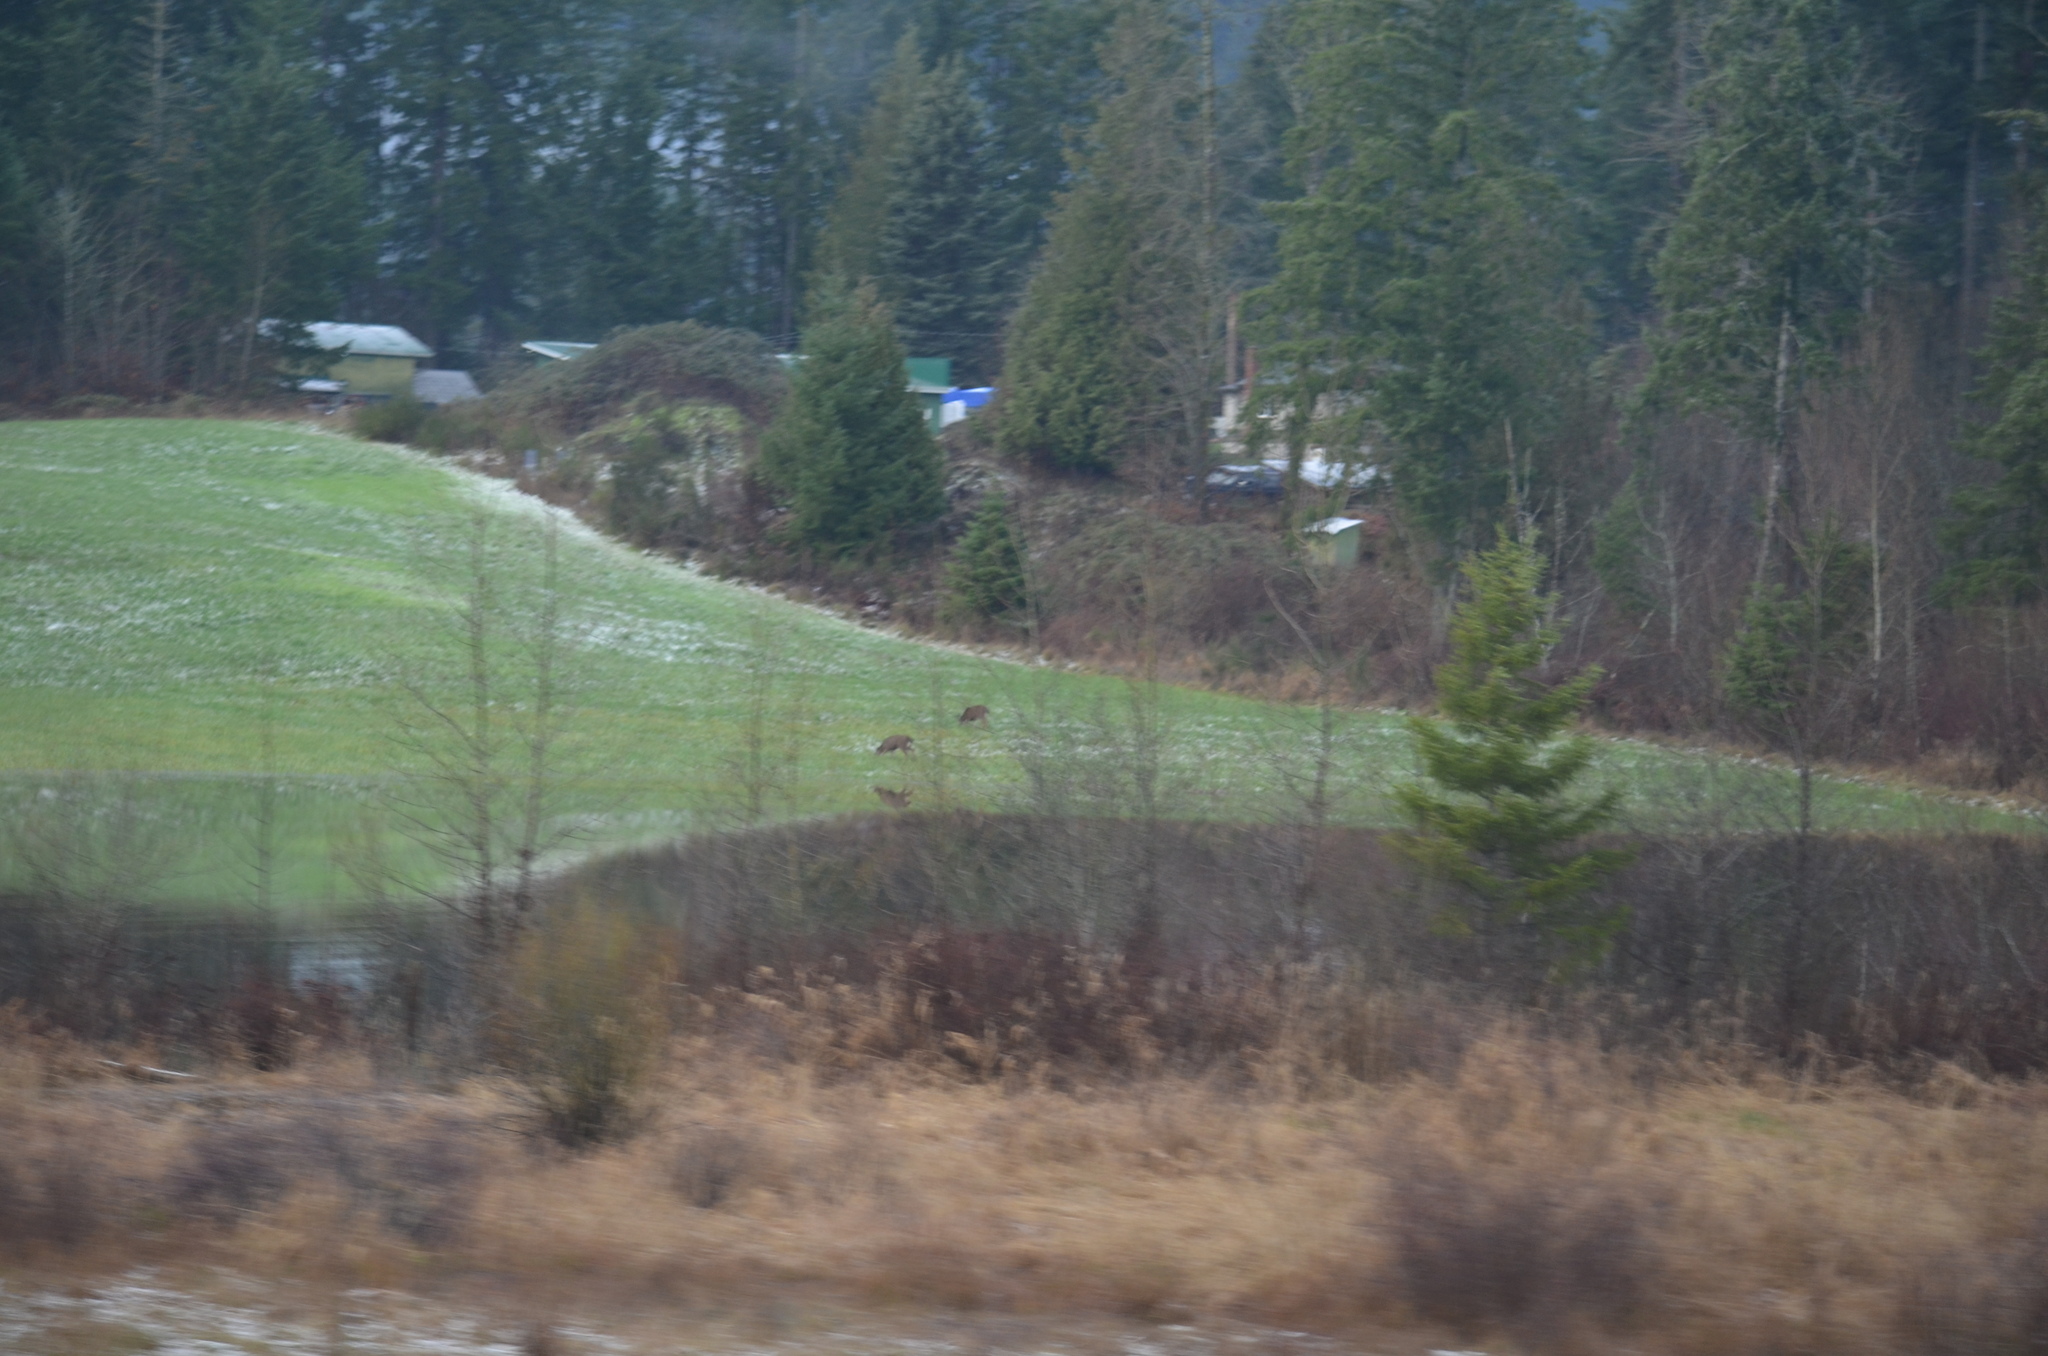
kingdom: Animalia
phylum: Chordata
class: Mammalia
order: Artiodactyla
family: Cervidae
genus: Odocoileus
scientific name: Odocoileus hemionus
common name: Mule deer
